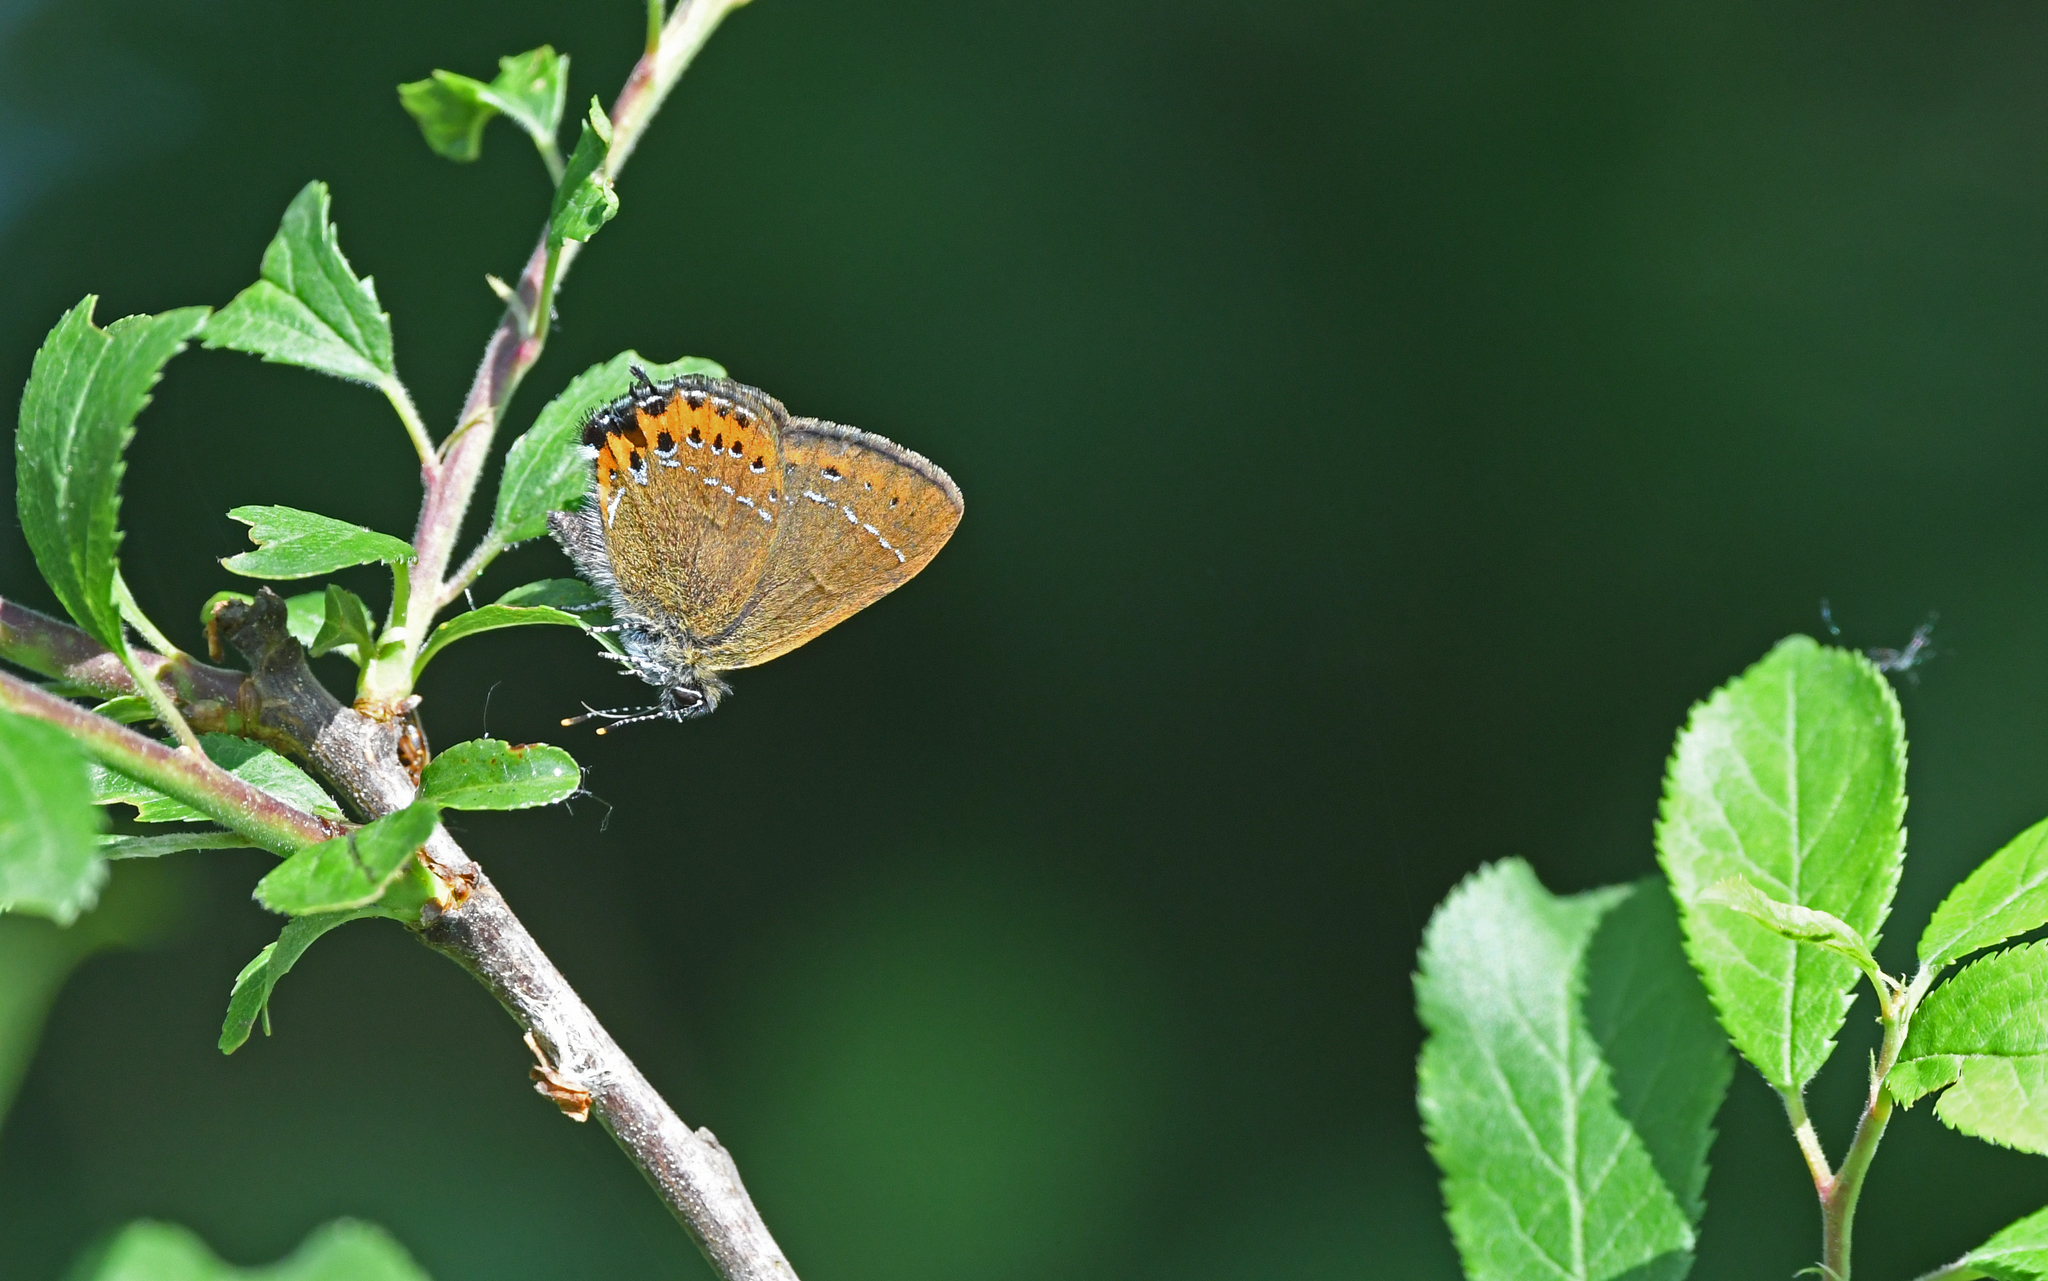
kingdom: Animalia
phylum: Arthropoda
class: Insecta
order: Lepidoptera
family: Lycaenidae
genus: Fixsenia
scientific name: Fixsenia pruni
